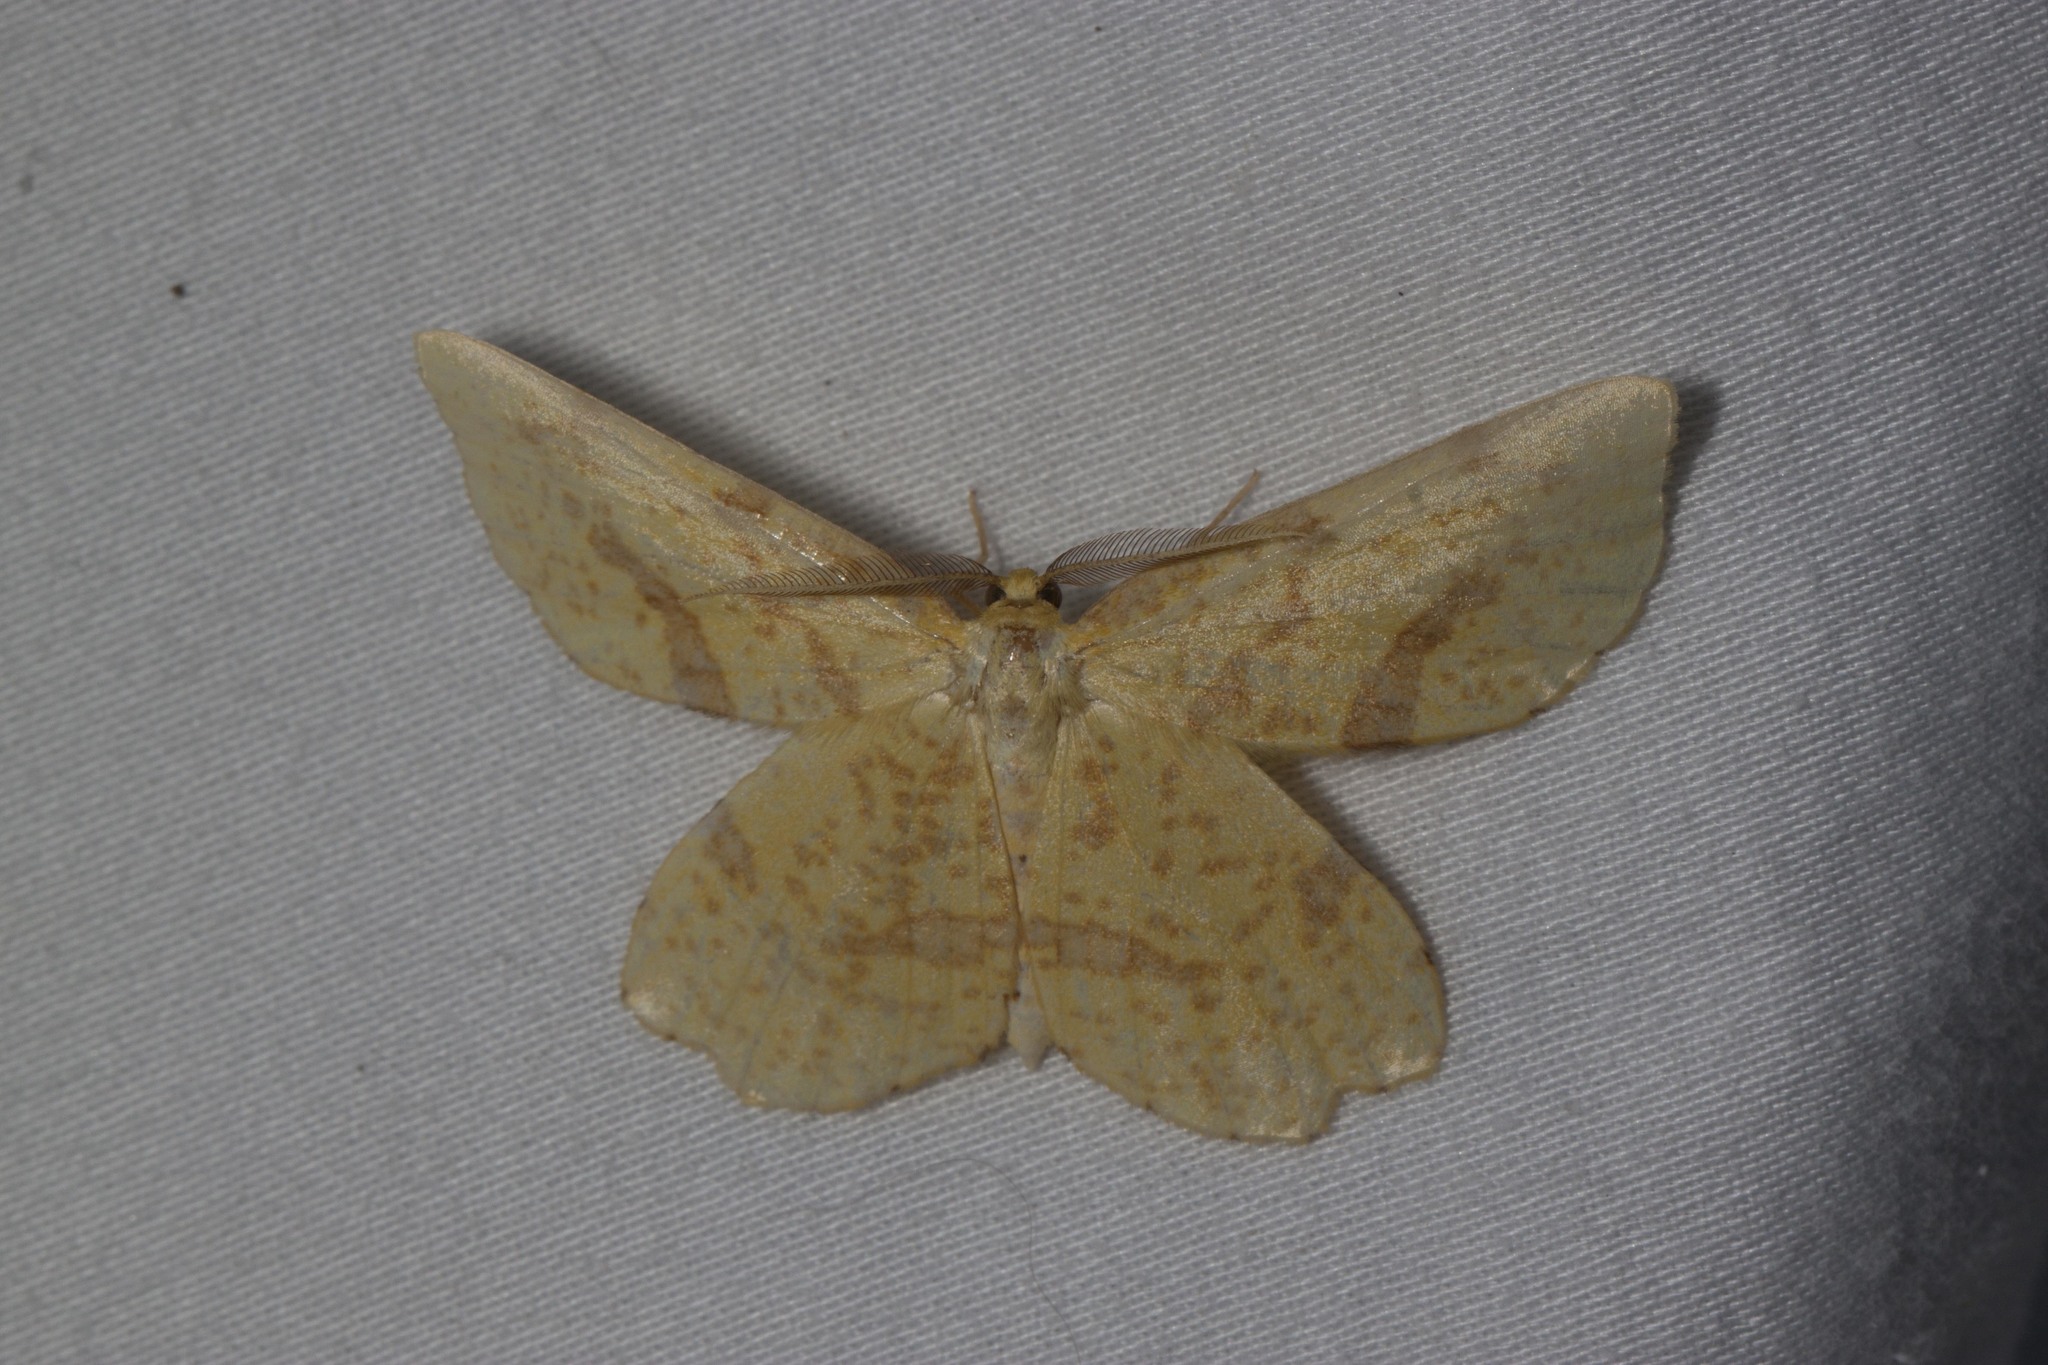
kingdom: Animalia
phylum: Arthropoda
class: Insecta
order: Lepidoptera
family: Geometridae
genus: Xanthotype
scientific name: Xanthotype
